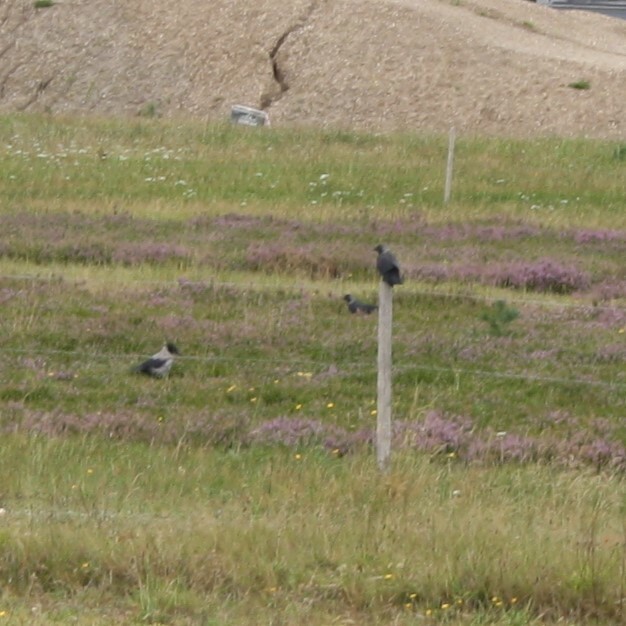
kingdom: Animalia
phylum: Chordata
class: Aves
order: Passeriformes
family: Corvidae
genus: Corvus
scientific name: Corvus cornix
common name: Hooded crow
